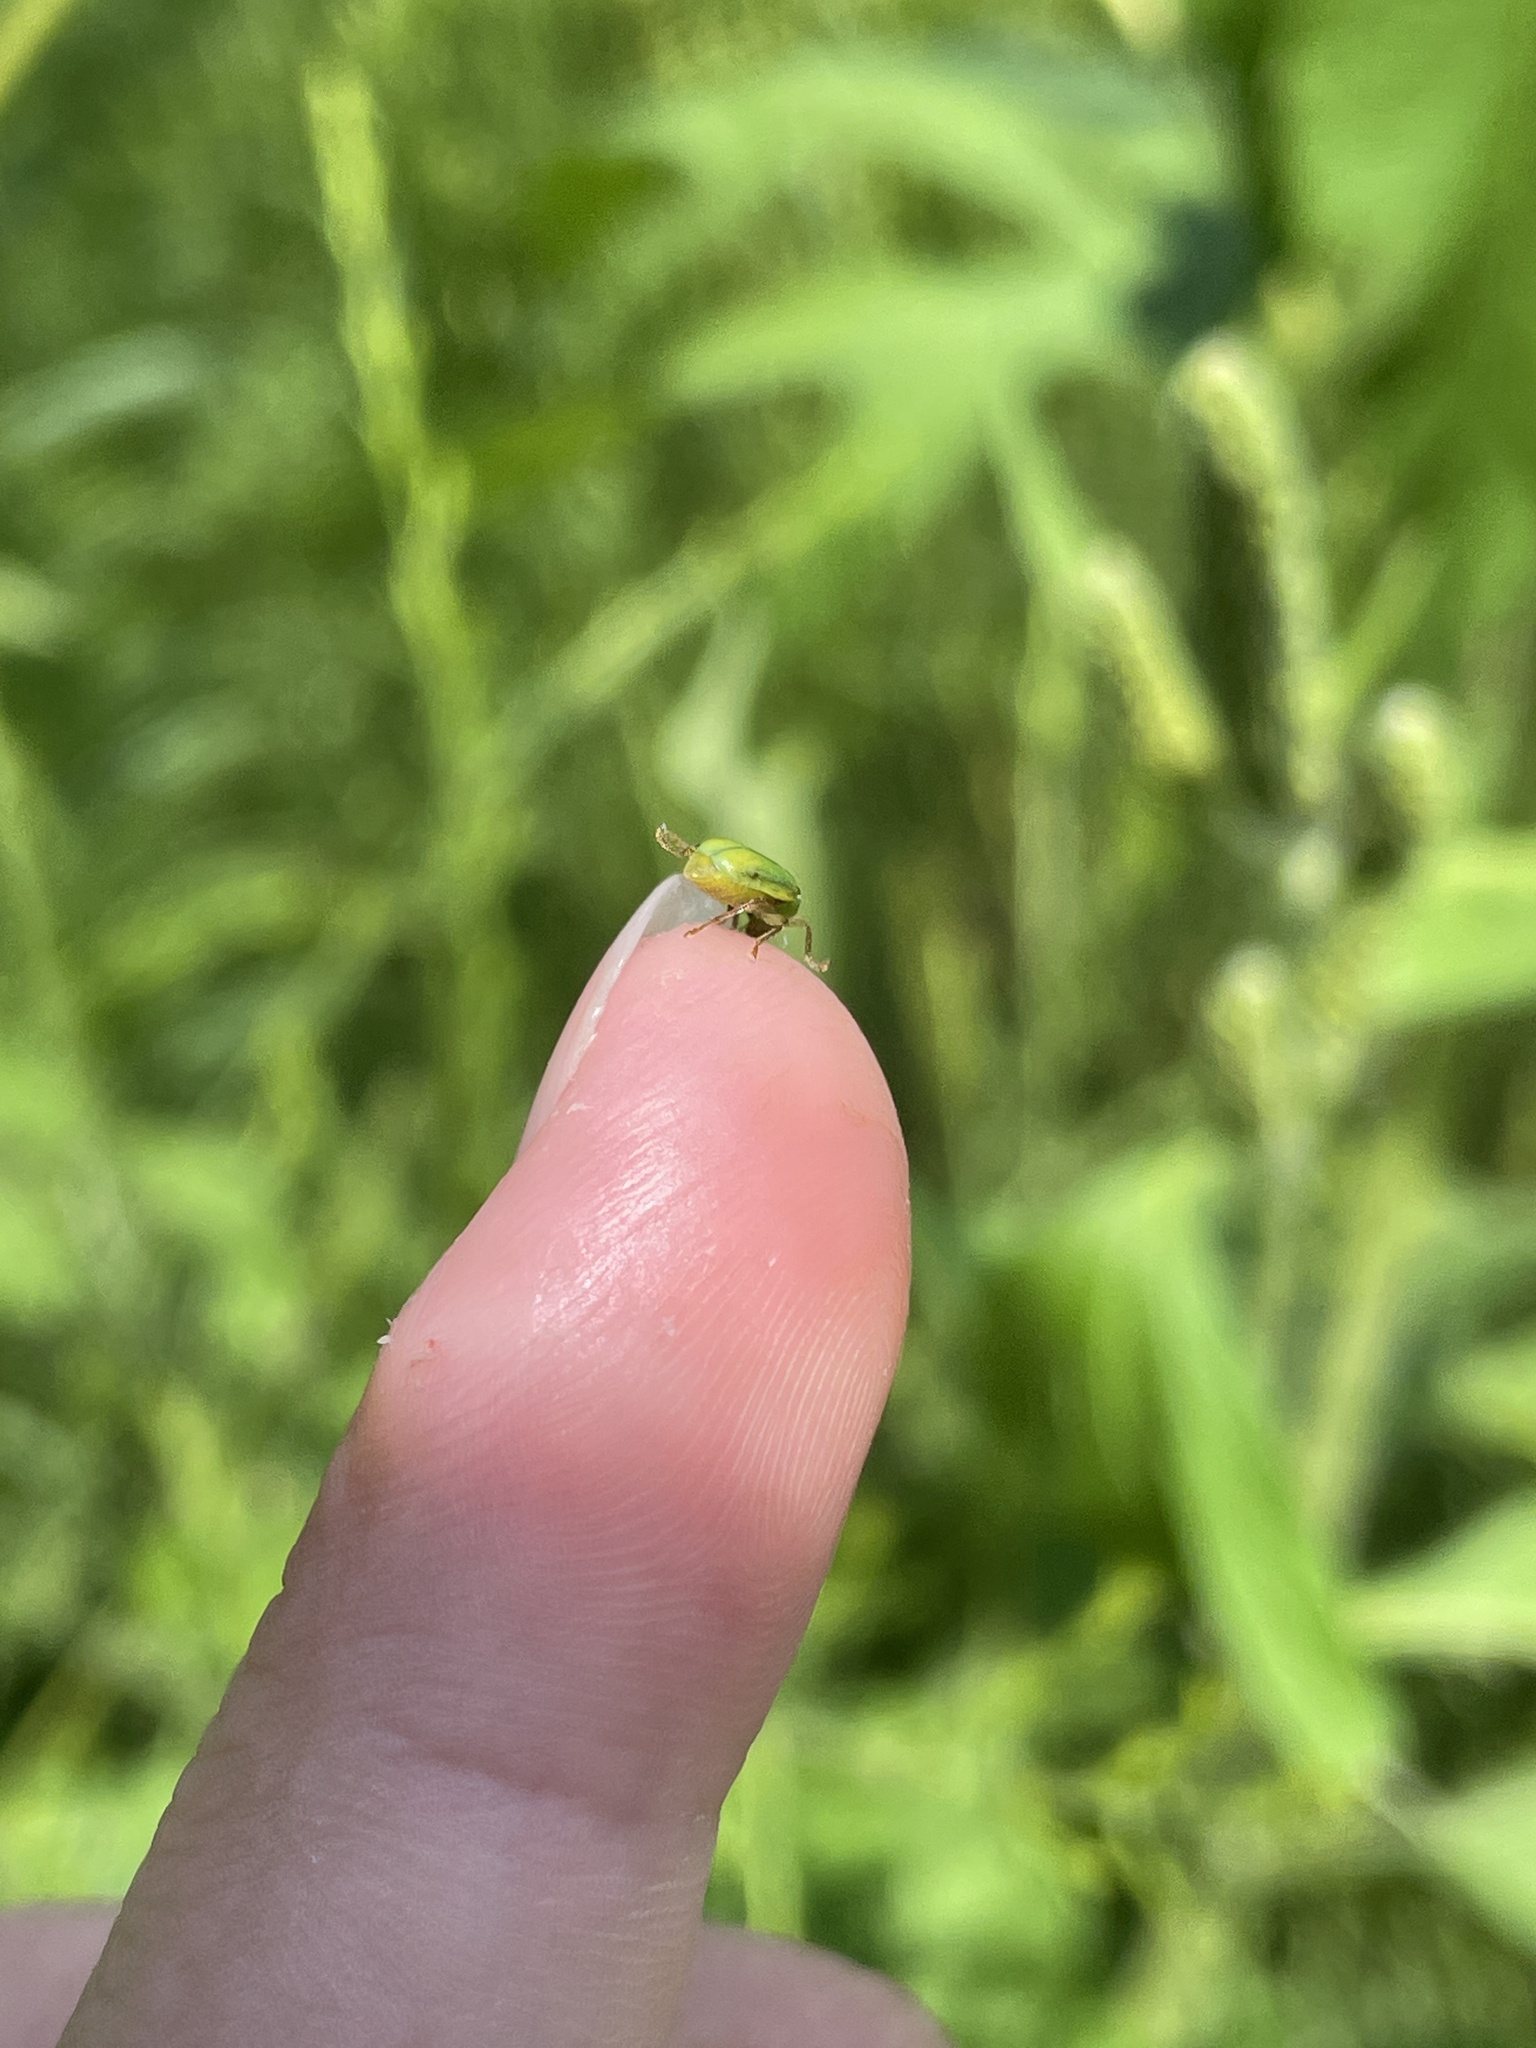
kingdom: Animalia
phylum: Arthropoda
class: Insecta
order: Coleoptera
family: Chrysomelidae
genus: Diabrotica
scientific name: Diabrotica barberi
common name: Northern corn rootworm
